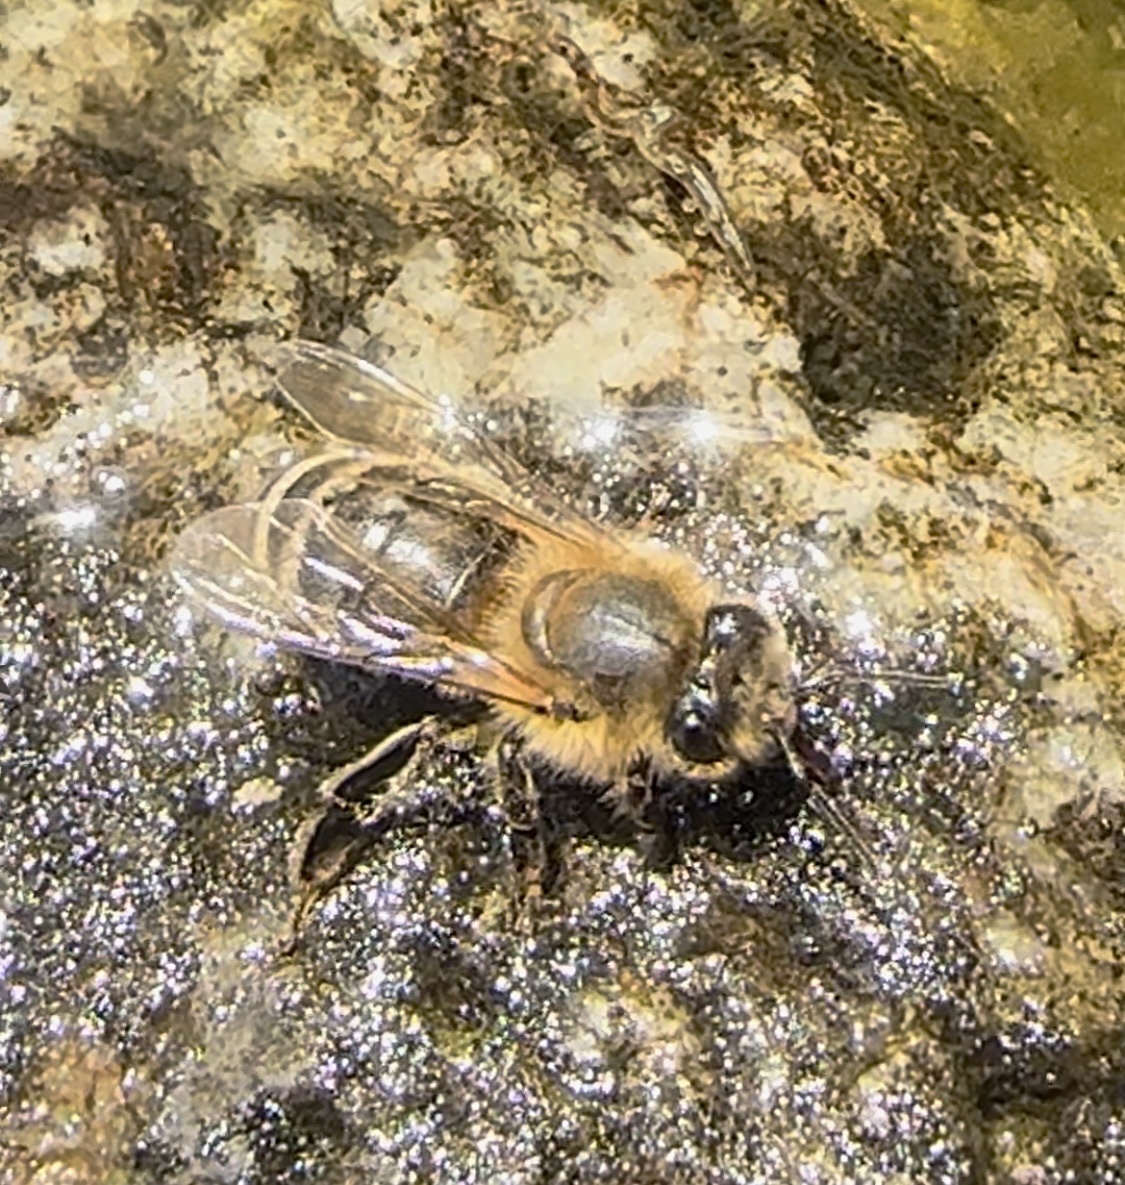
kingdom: Animalia
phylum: Arthropoda
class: Insecta
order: Hymenoptera
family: Apidae
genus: Apis
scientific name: Apis mellifera
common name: Honey bee
